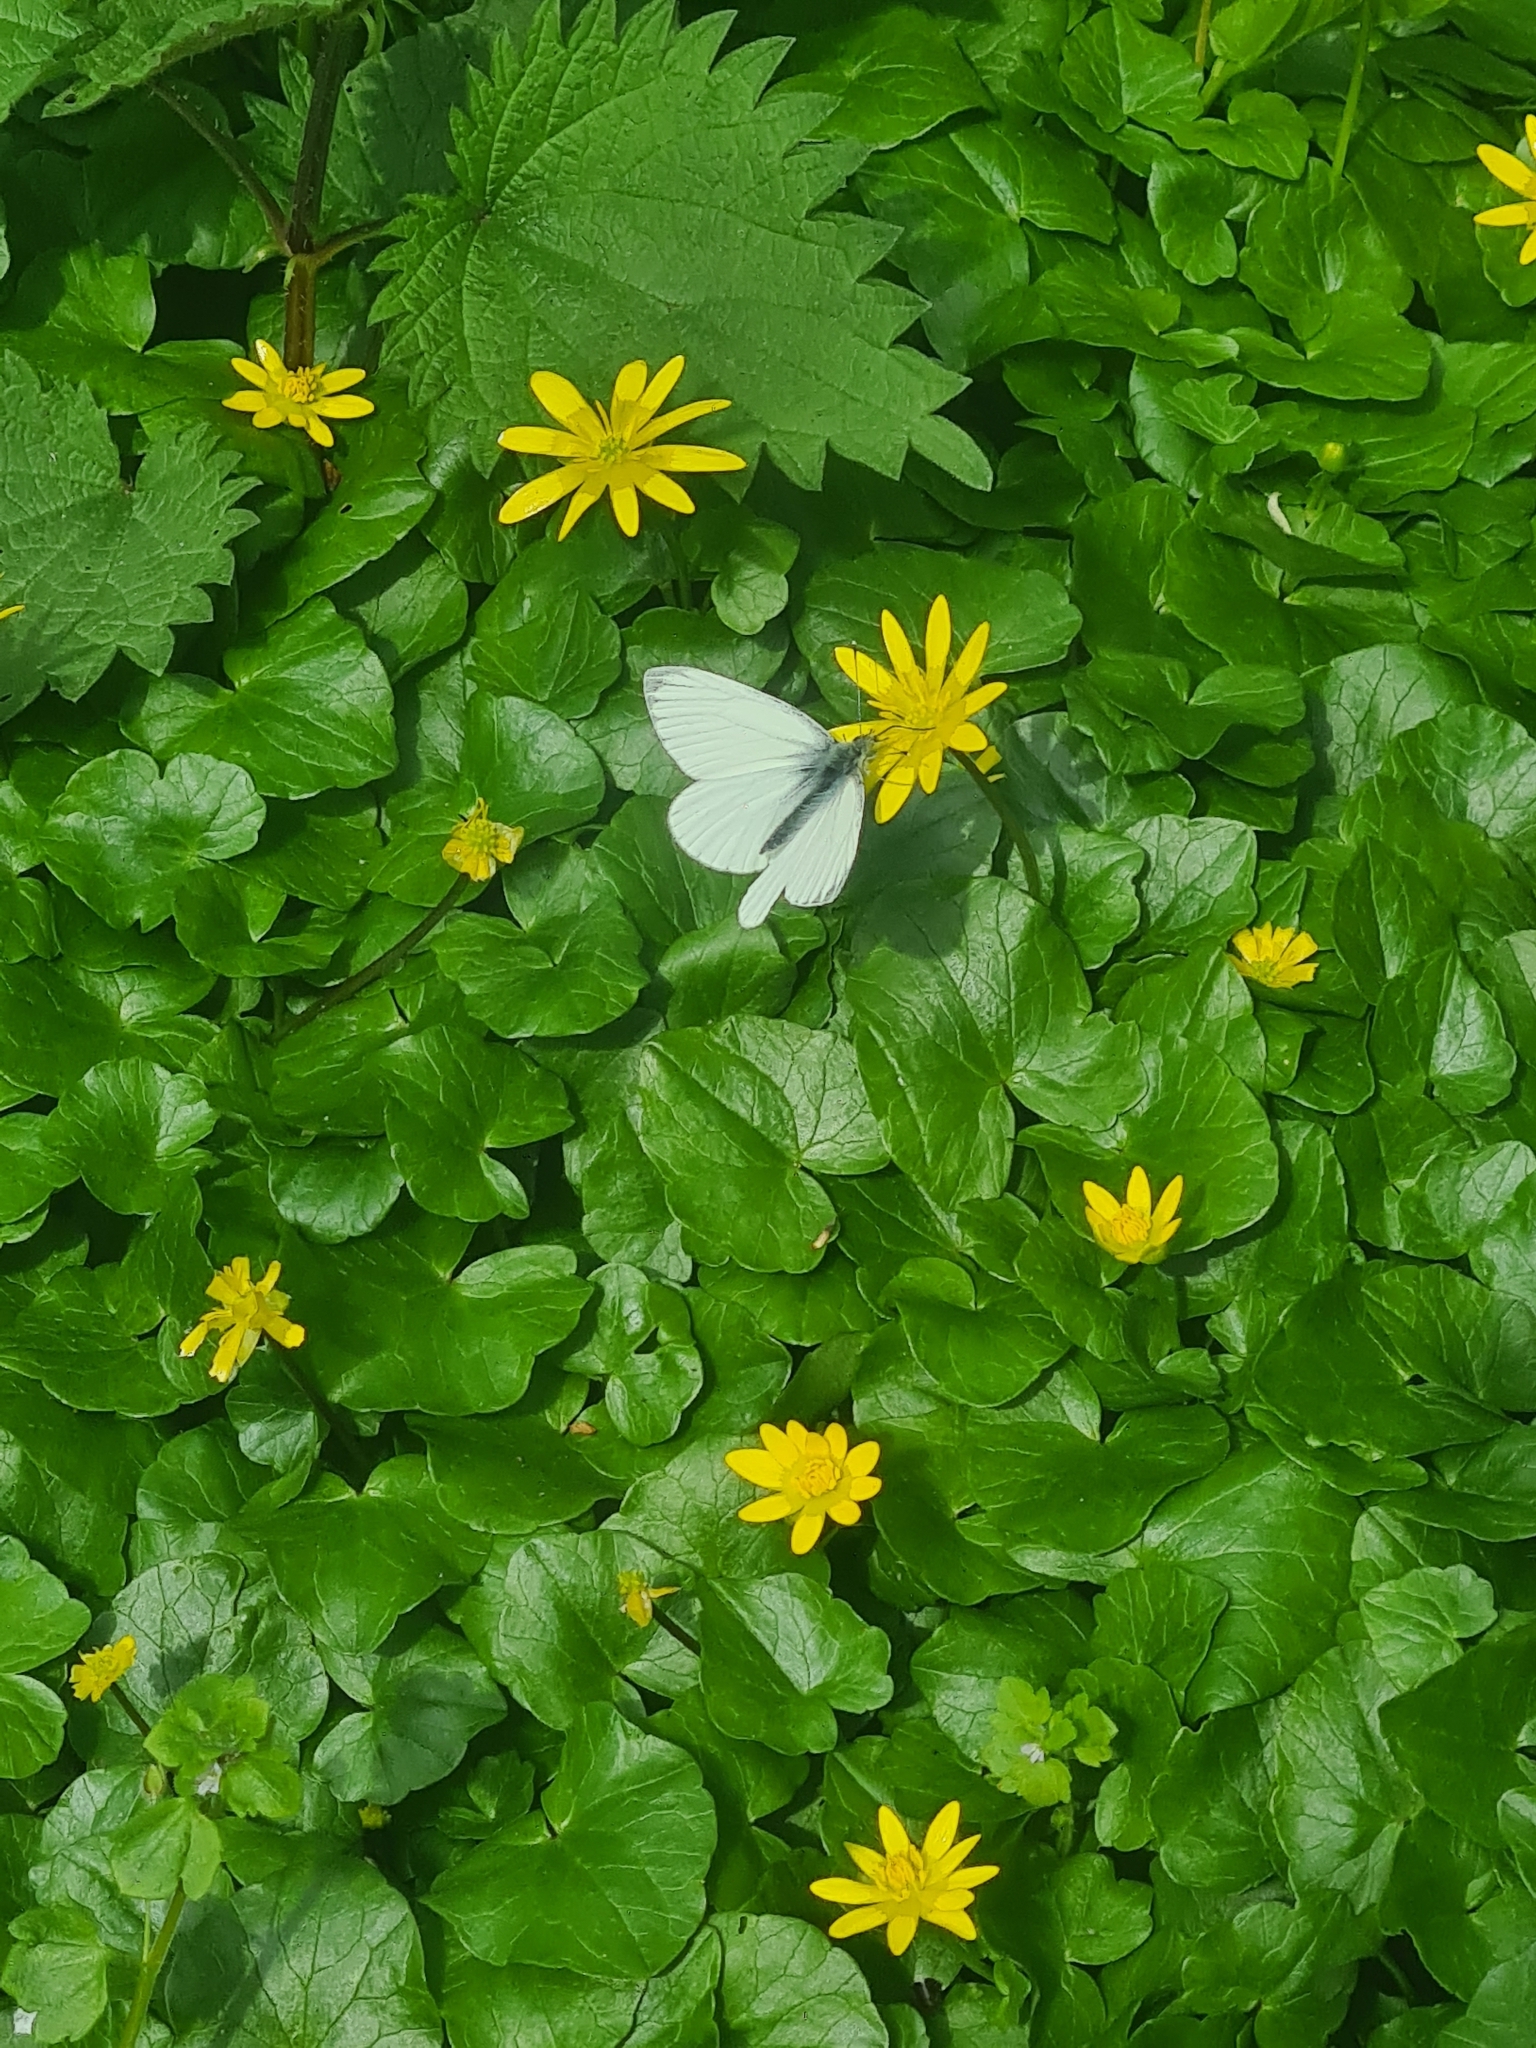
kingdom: Animalia
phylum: Arthropoda
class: Insecta
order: Lepidoptera
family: Pieridae
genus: Pieris
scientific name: Pieris napi
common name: Green-veined white
